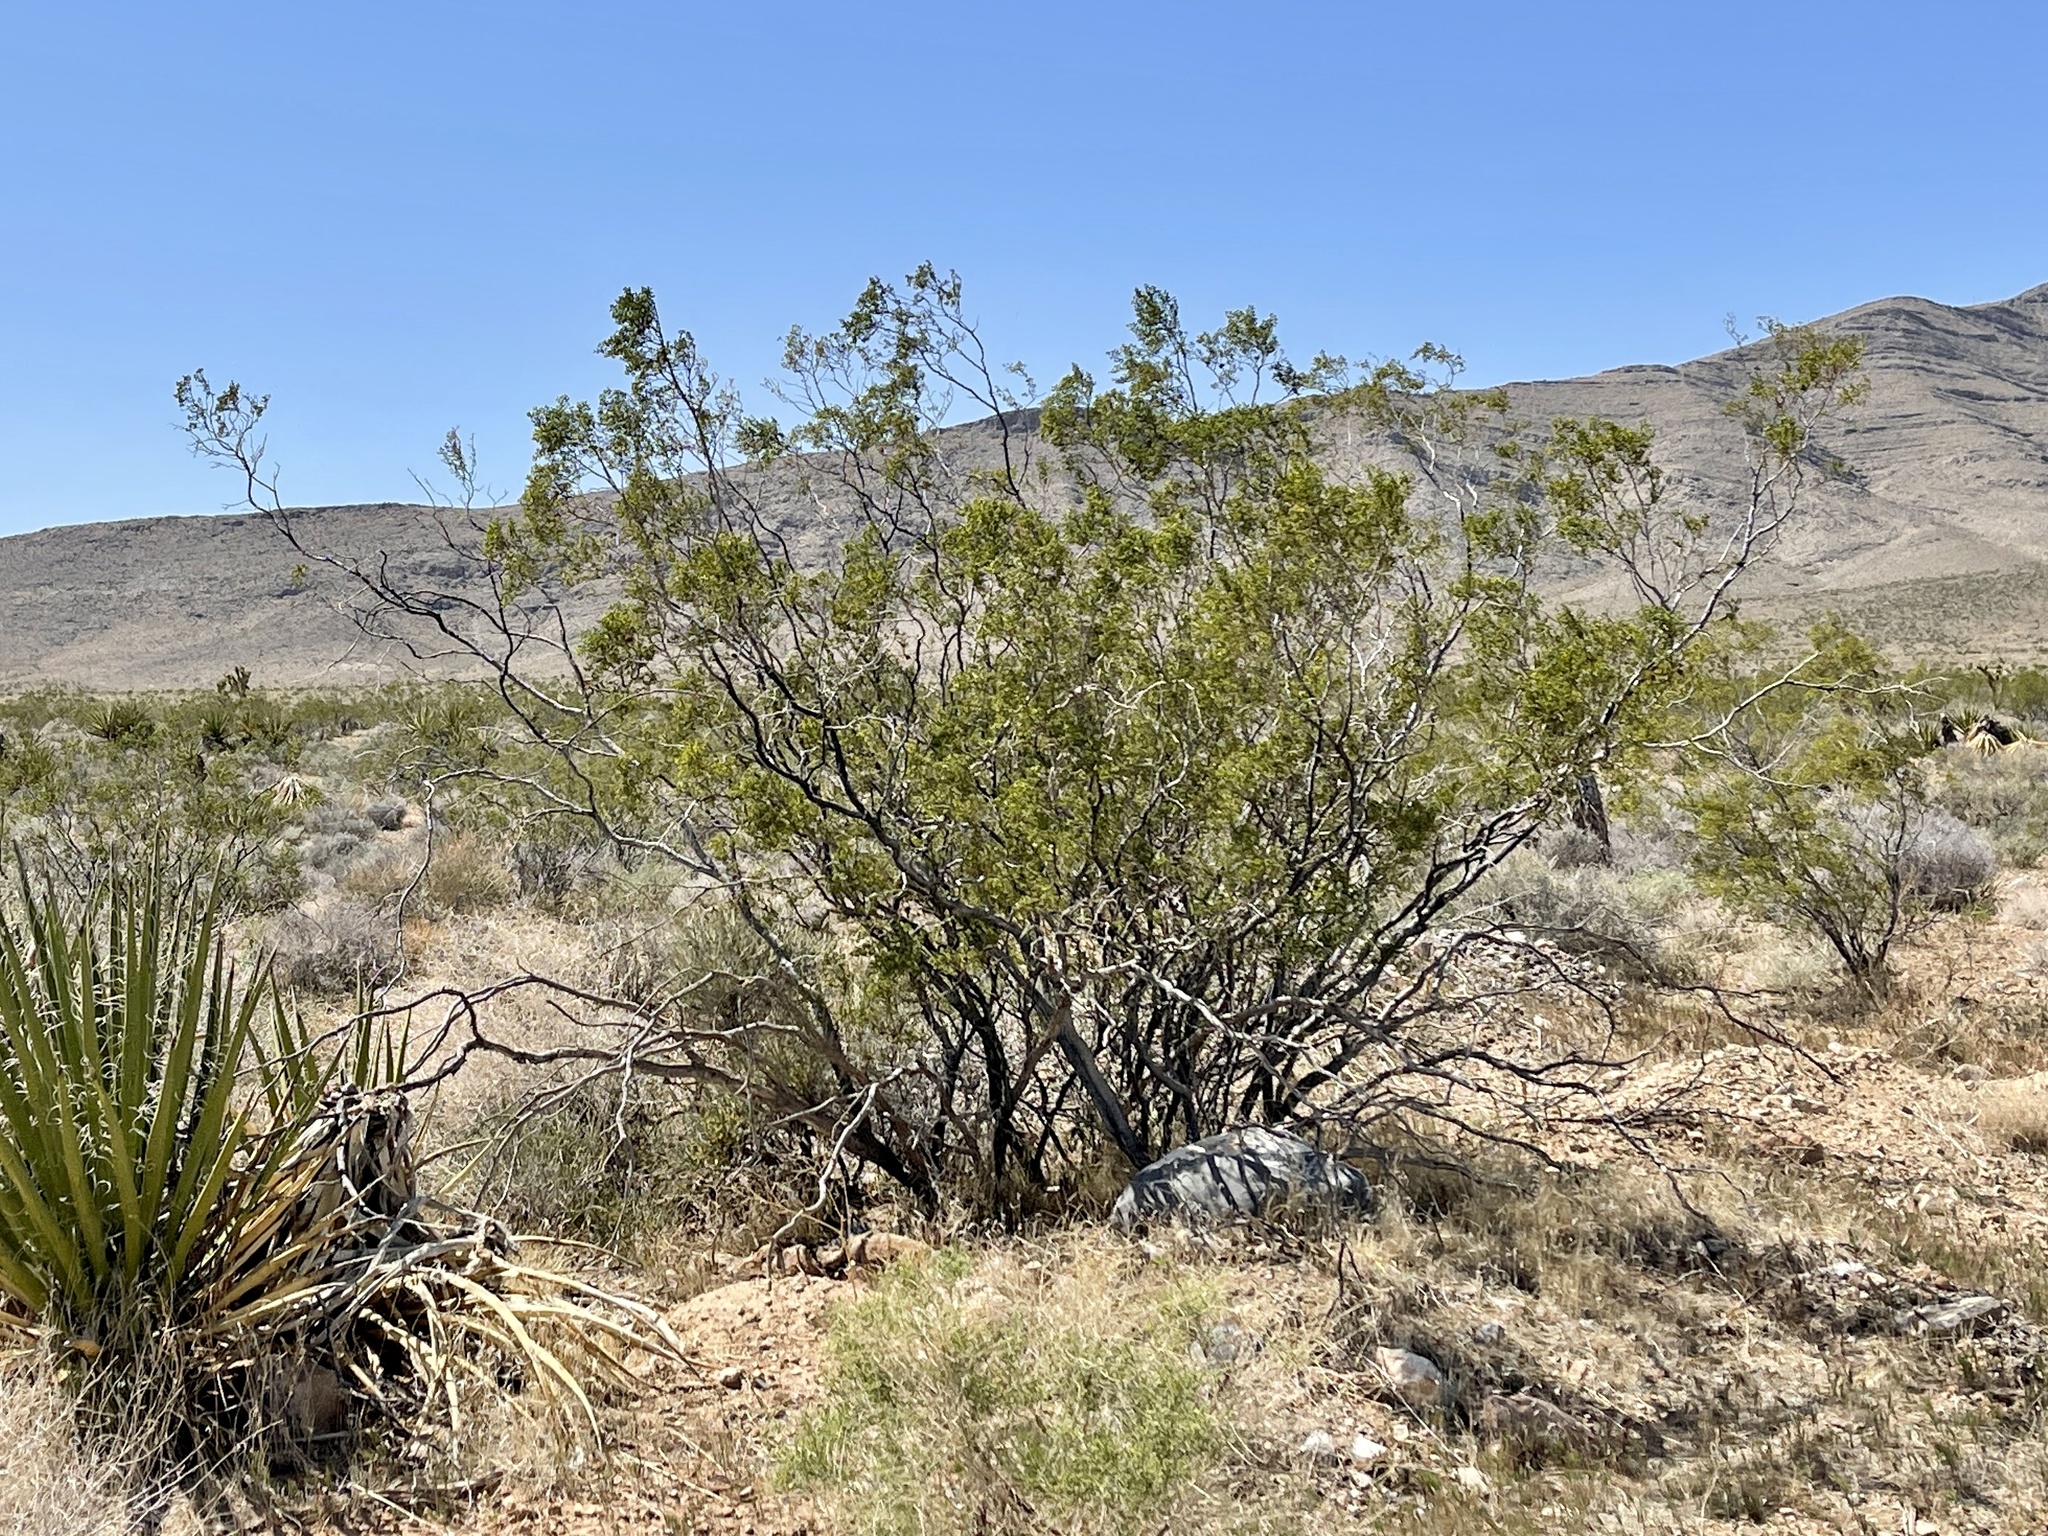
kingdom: Plantae
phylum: Tracheophyta
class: Magnoliopsida
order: Zygophyllales
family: Zygophyllaceae
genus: Larrea
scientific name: Larrea tridentata
